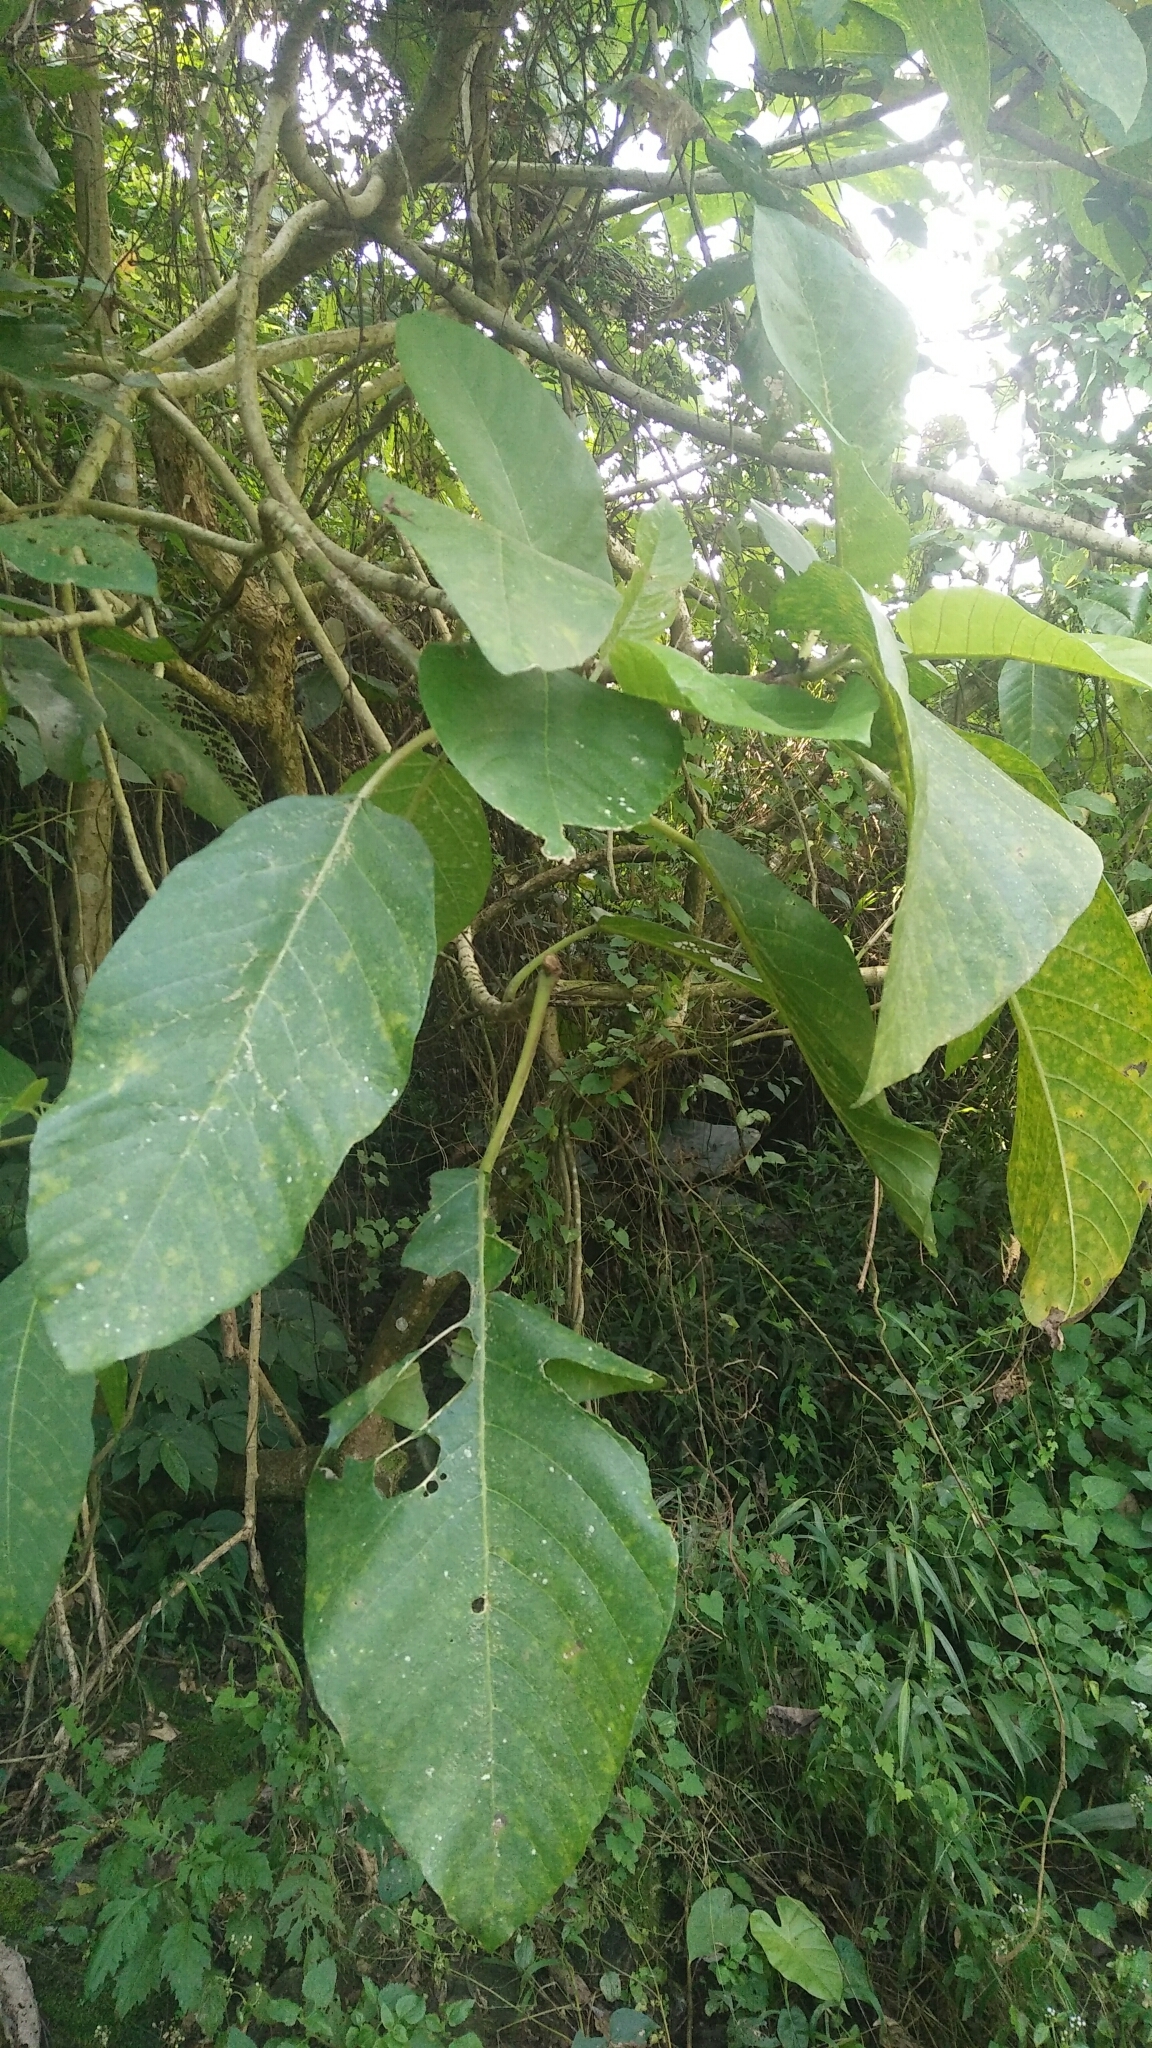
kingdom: Plantae
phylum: Tracheophyta
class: Magnoliopsida
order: Rosales
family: Urticaceae
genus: Dendrocnide
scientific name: Dendrocnide meyeniana
